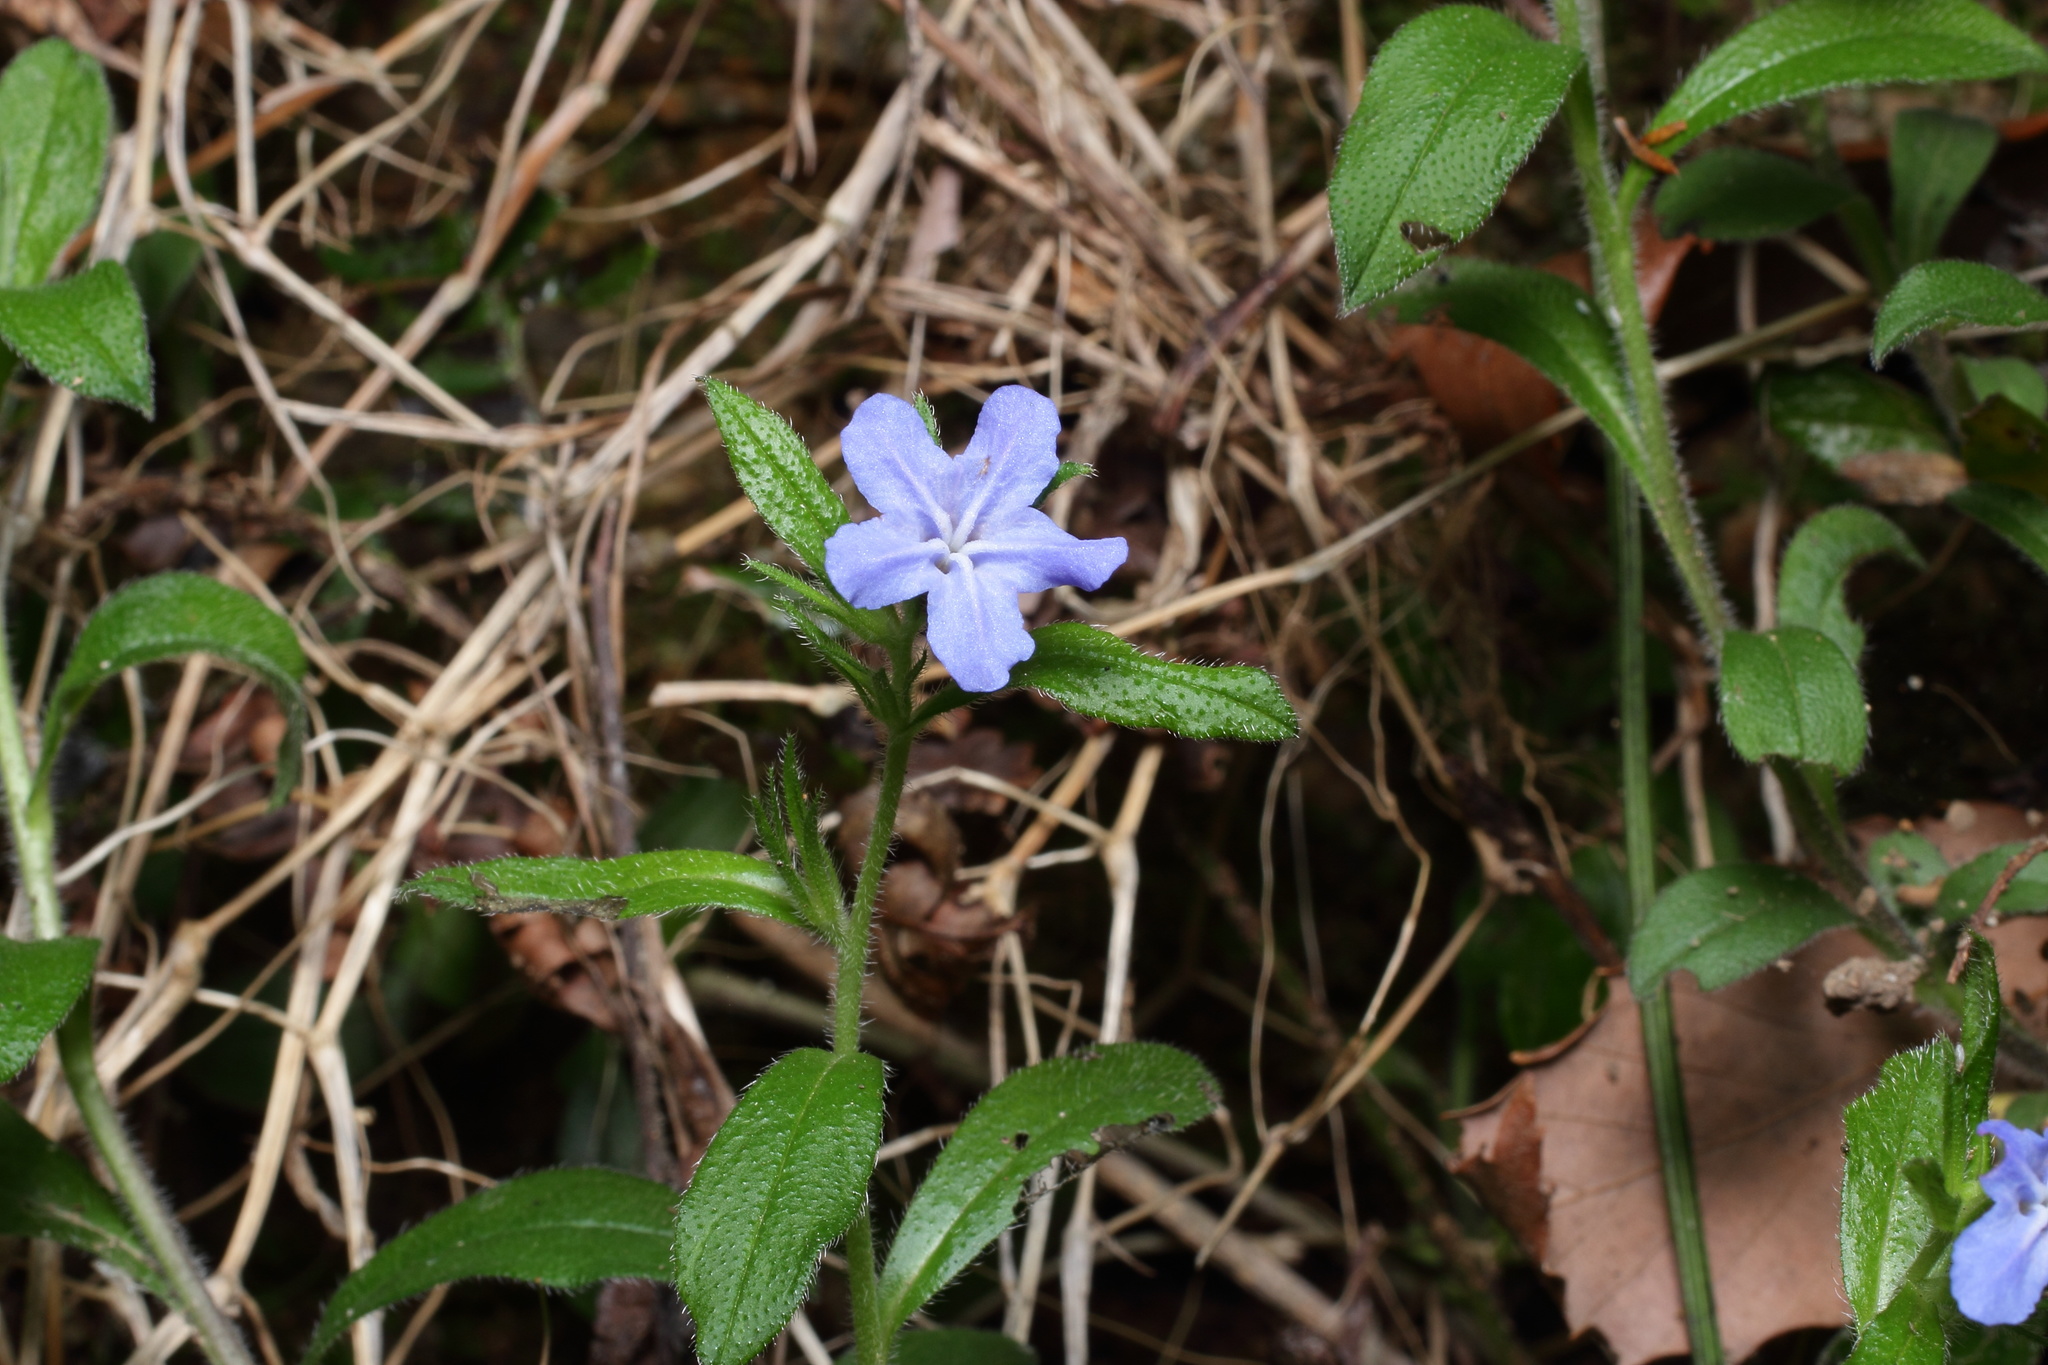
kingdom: Plantae
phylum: Tracheophyta
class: Magnoliopsida
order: Boraginales
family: Boraginaceae
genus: Aegonychon
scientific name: Aegonychon zollingeri
